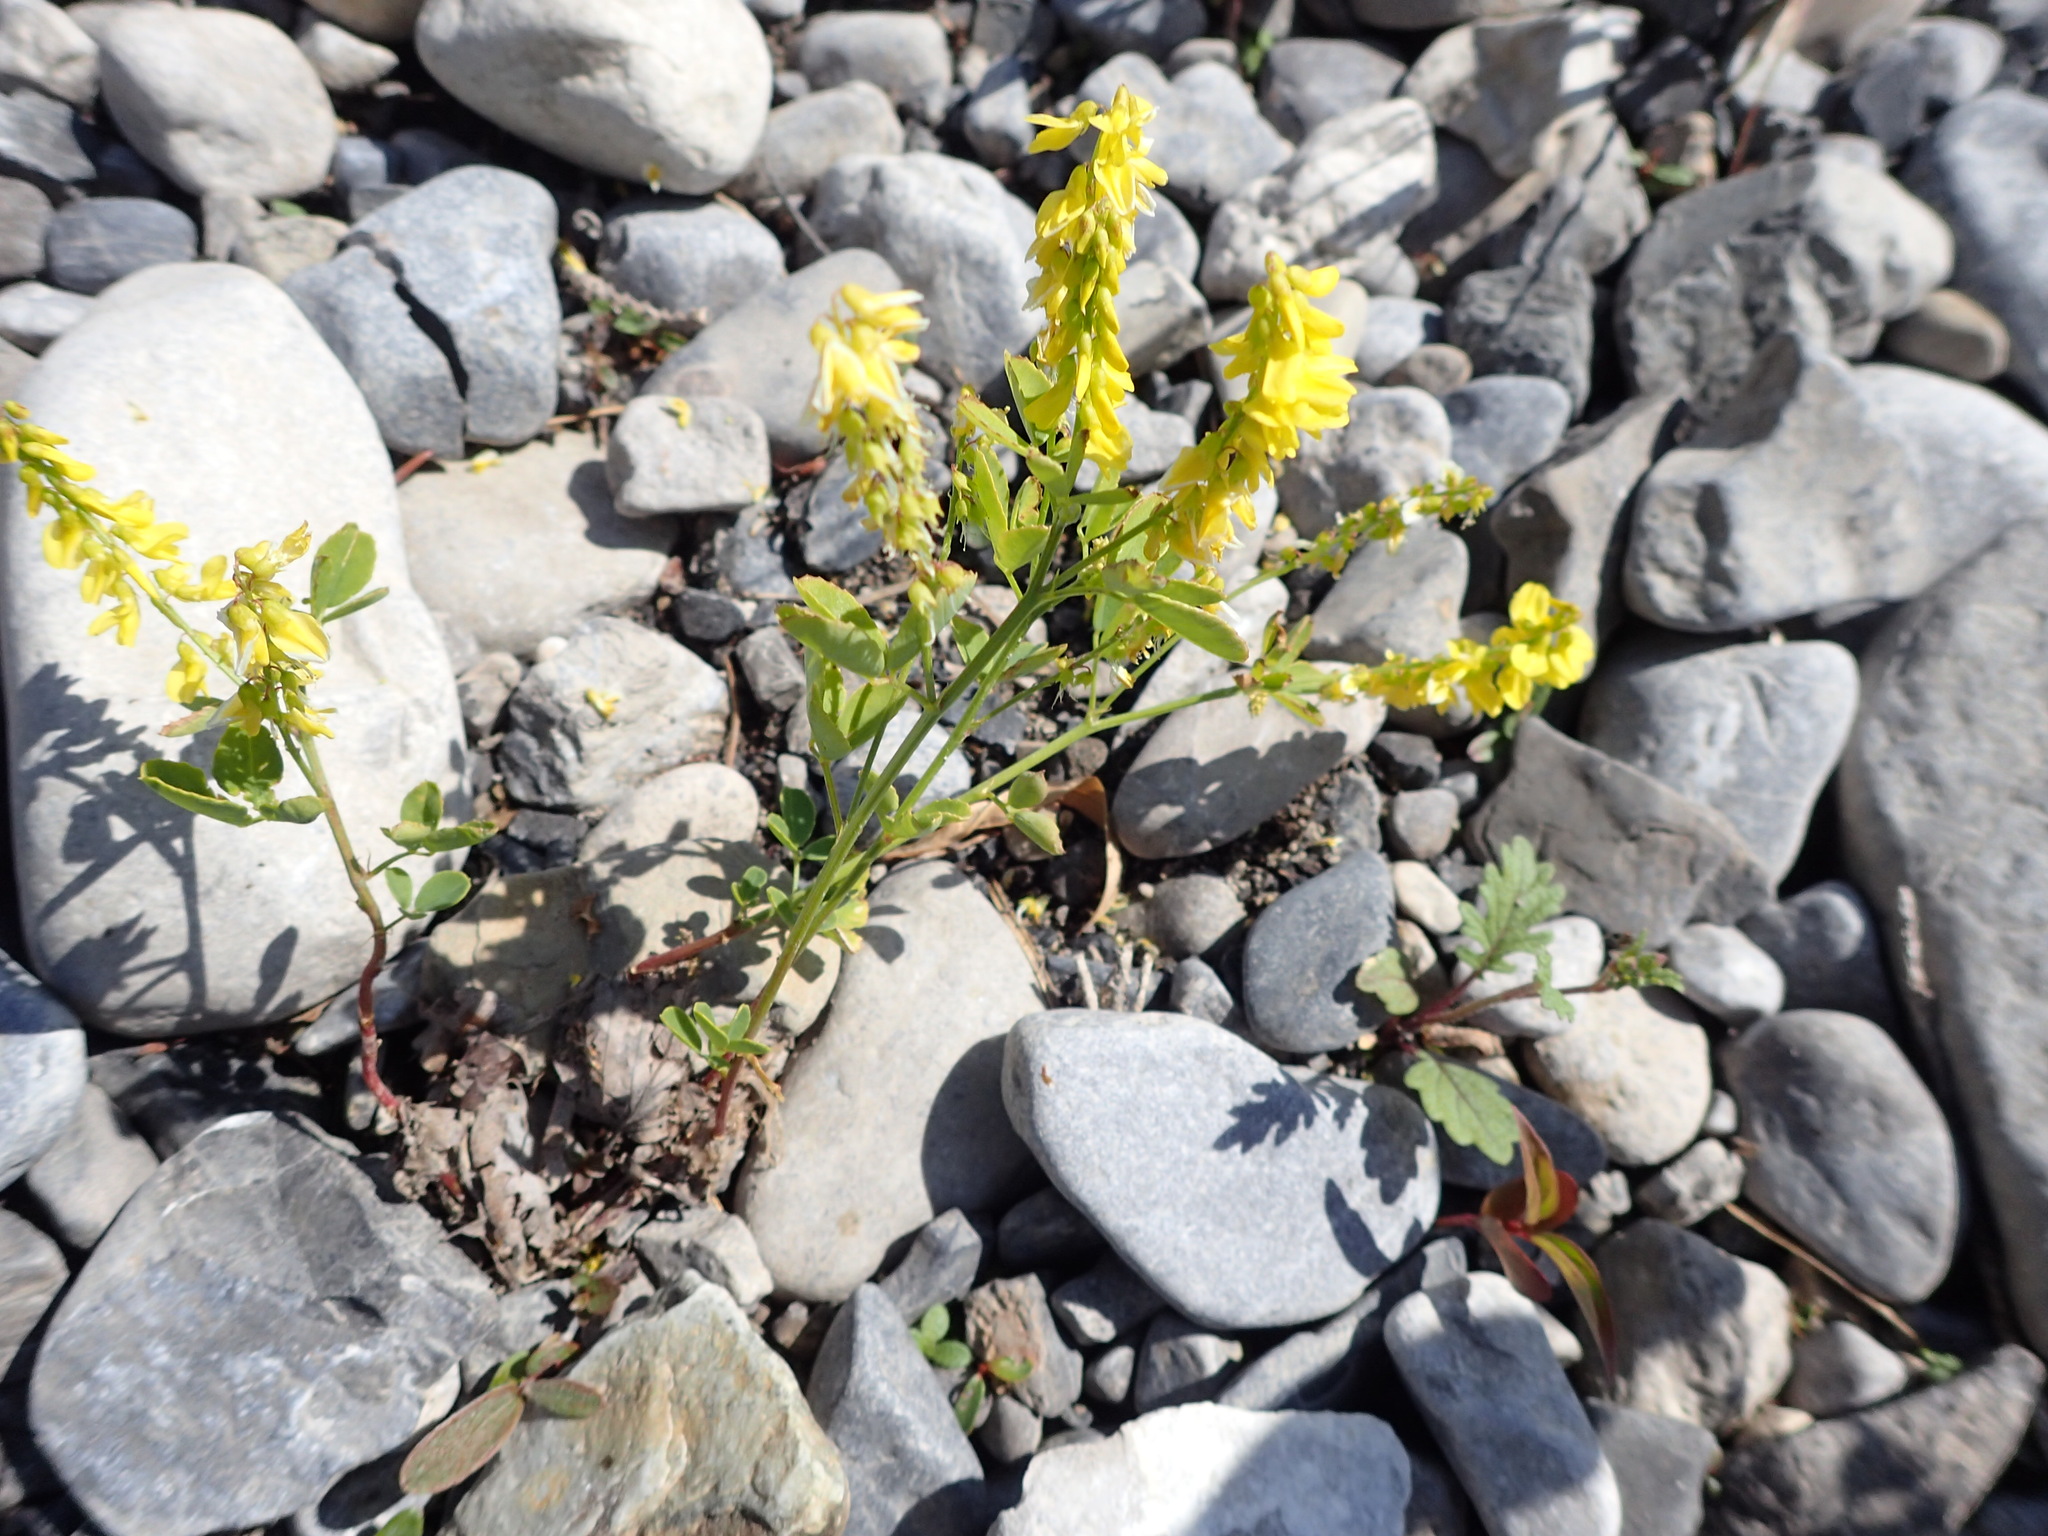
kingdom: Plantae
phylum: Tracheophyta
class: Magnoliopsida
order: Fabales
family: Fabaceae
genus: Melilotus
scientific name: Melilotus officinalis
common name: Sweetclover
